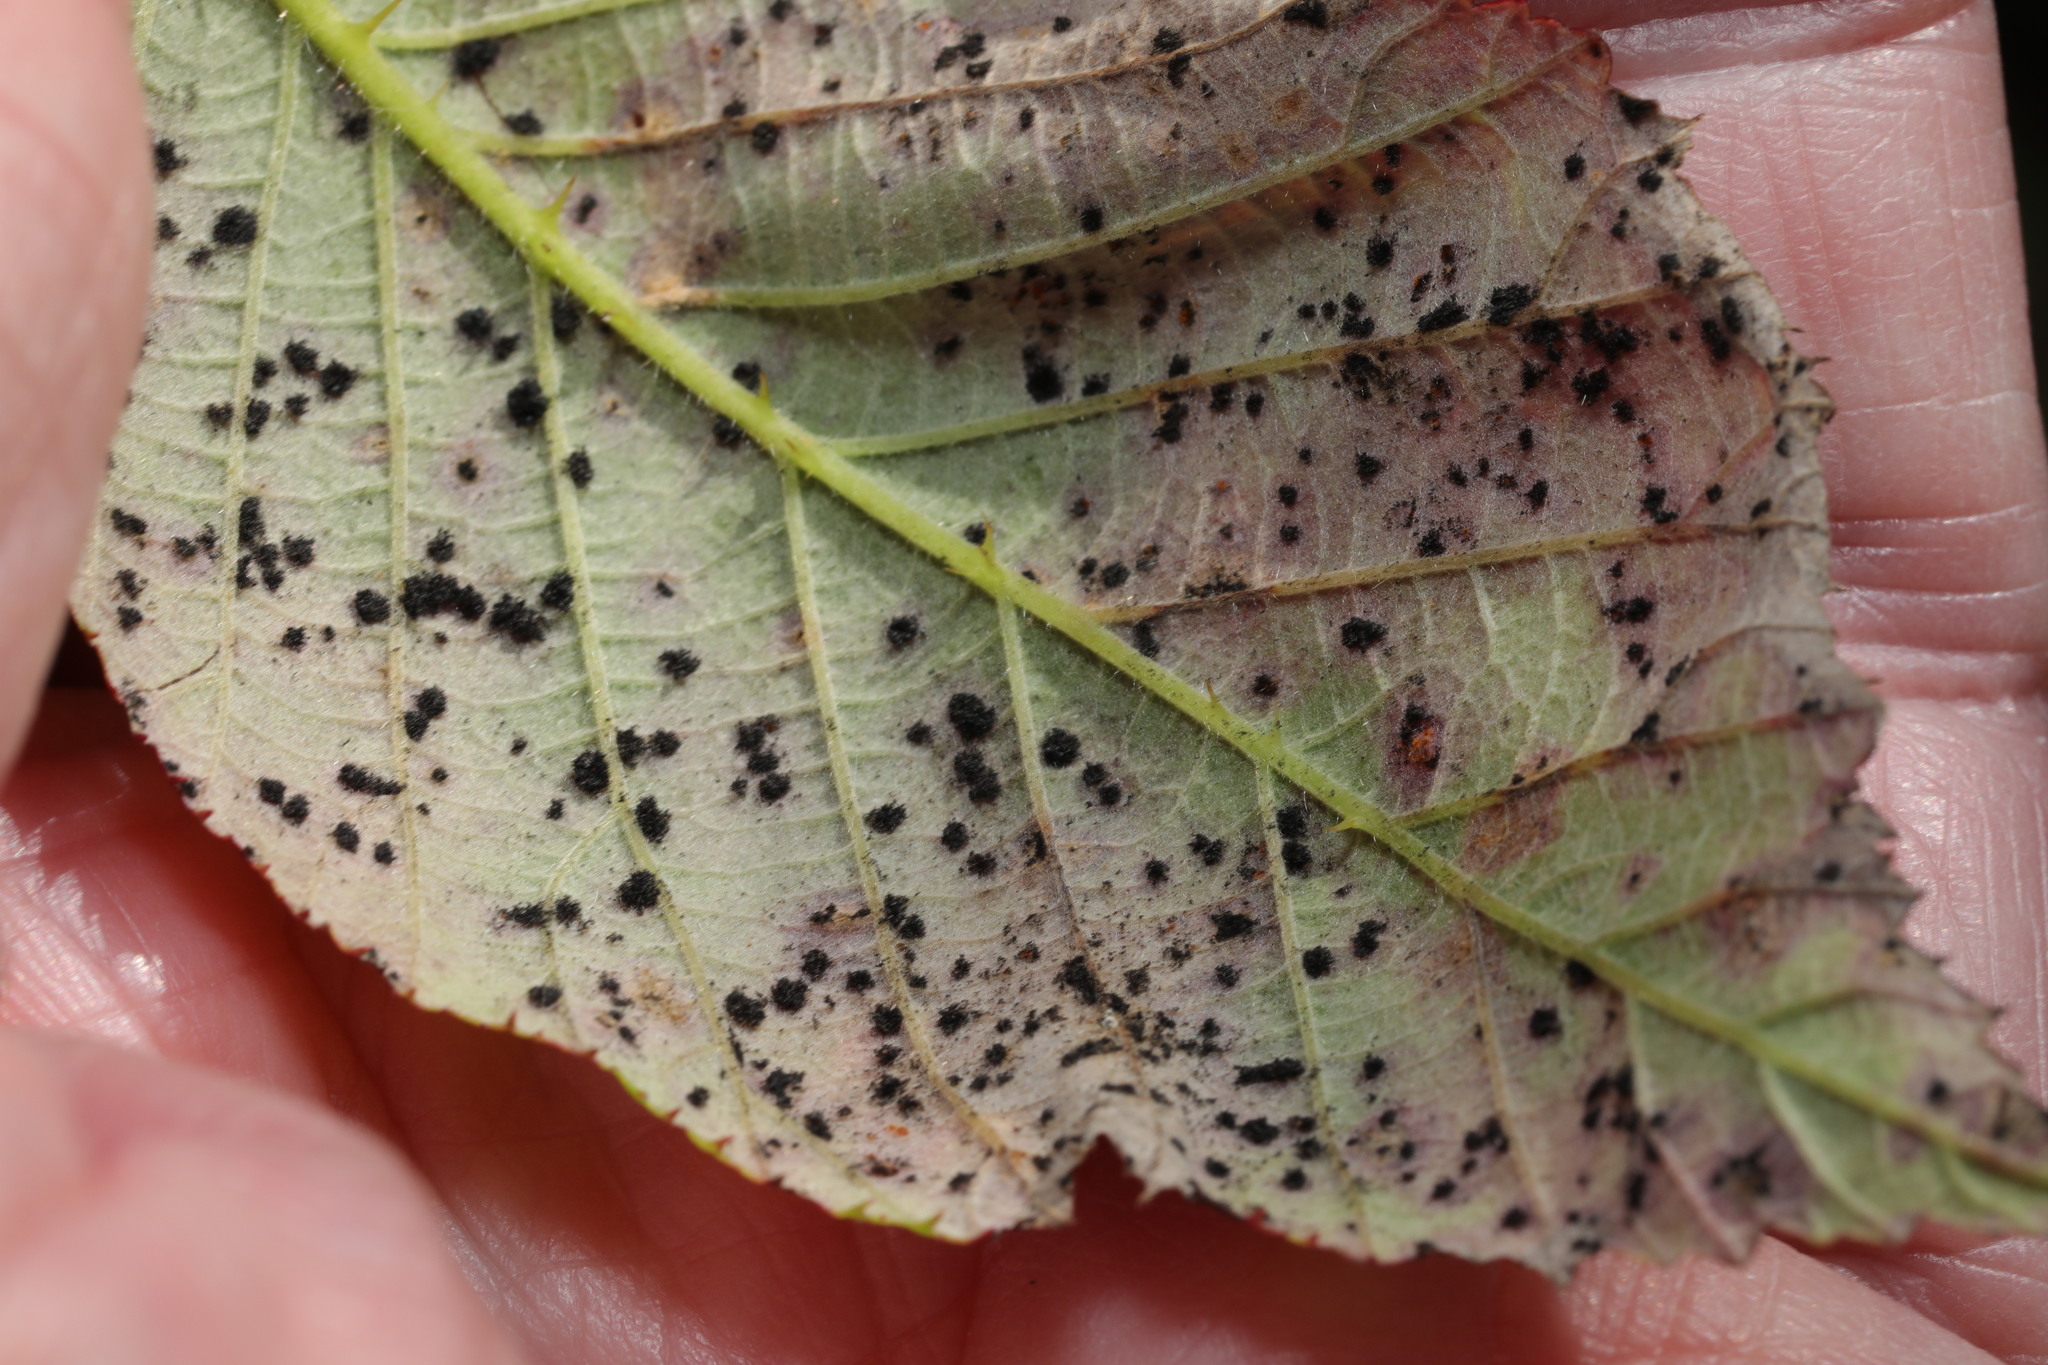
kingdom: Fungi
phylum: Basidiomycota
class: Pucciniomycetes
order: Pucciniales
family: Phragmidiaceae
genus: Phragmidium
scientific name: Phragmidium violaceum
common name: Violet bramble rust
